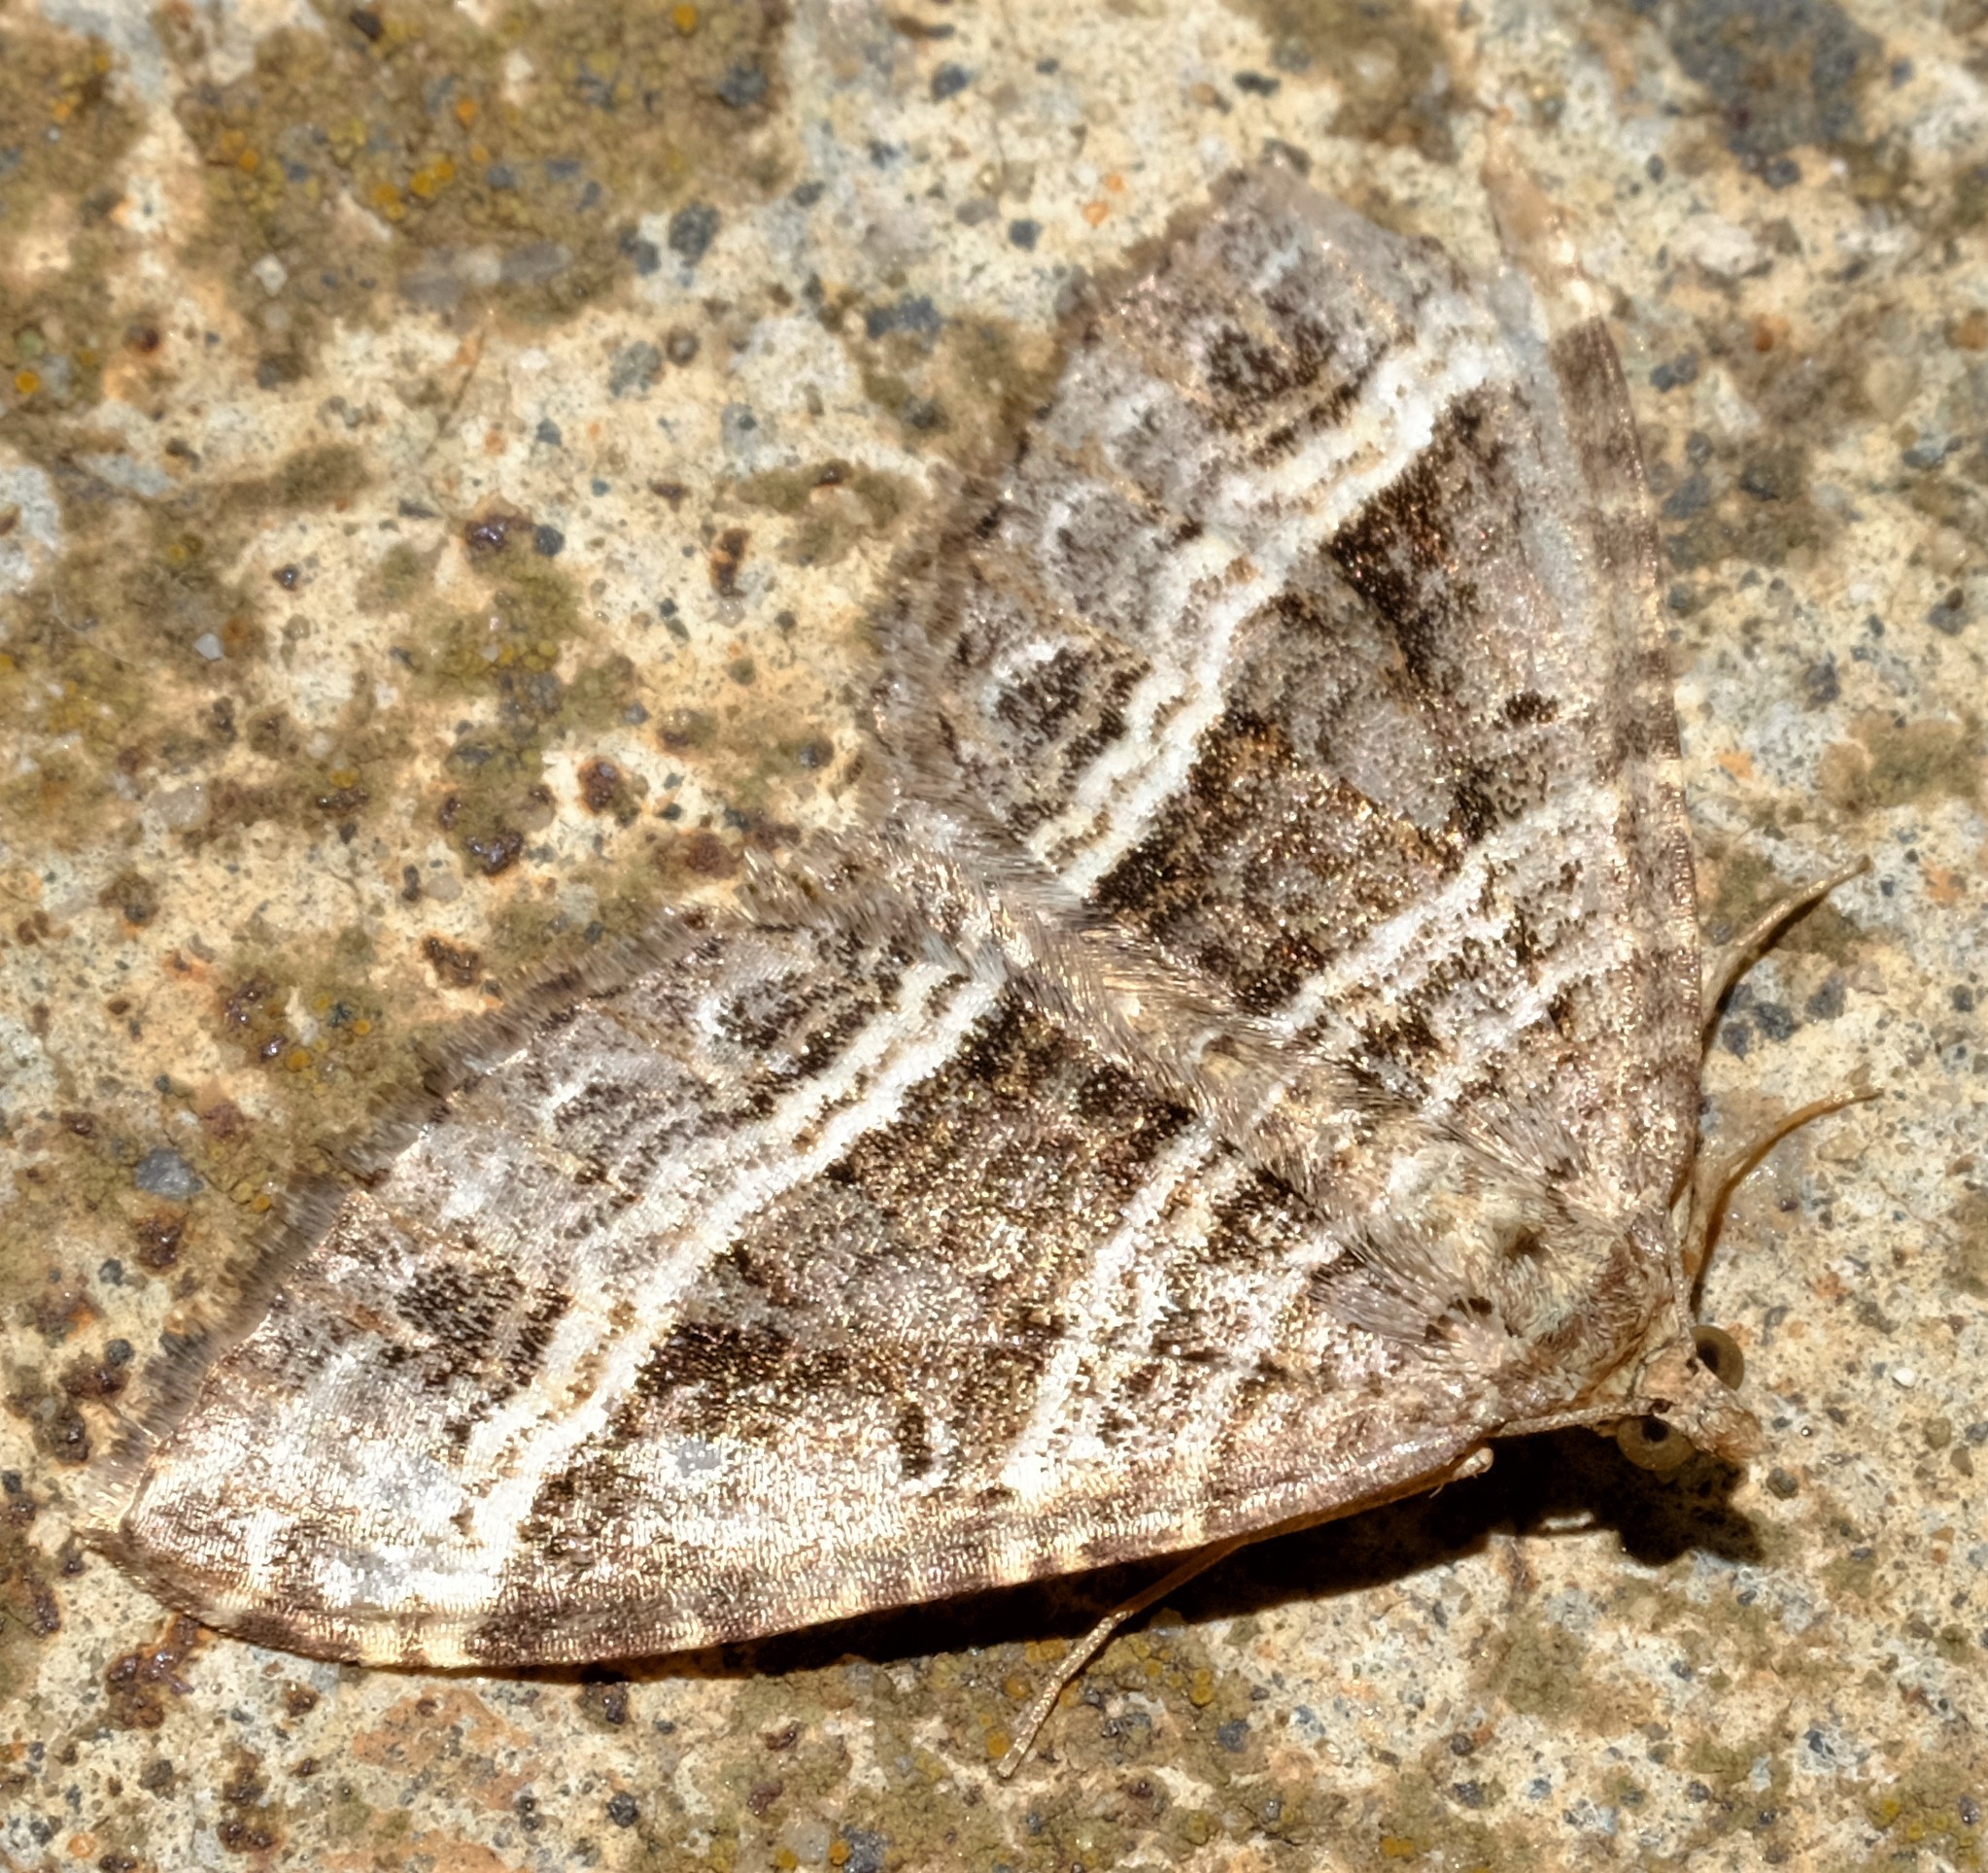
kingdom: Animalia
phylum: Arthropoda
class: Insecta
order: Lepidoptera
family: Geometridae
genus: Chrysolarentia
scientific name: Chrysolarentia subrectaria
